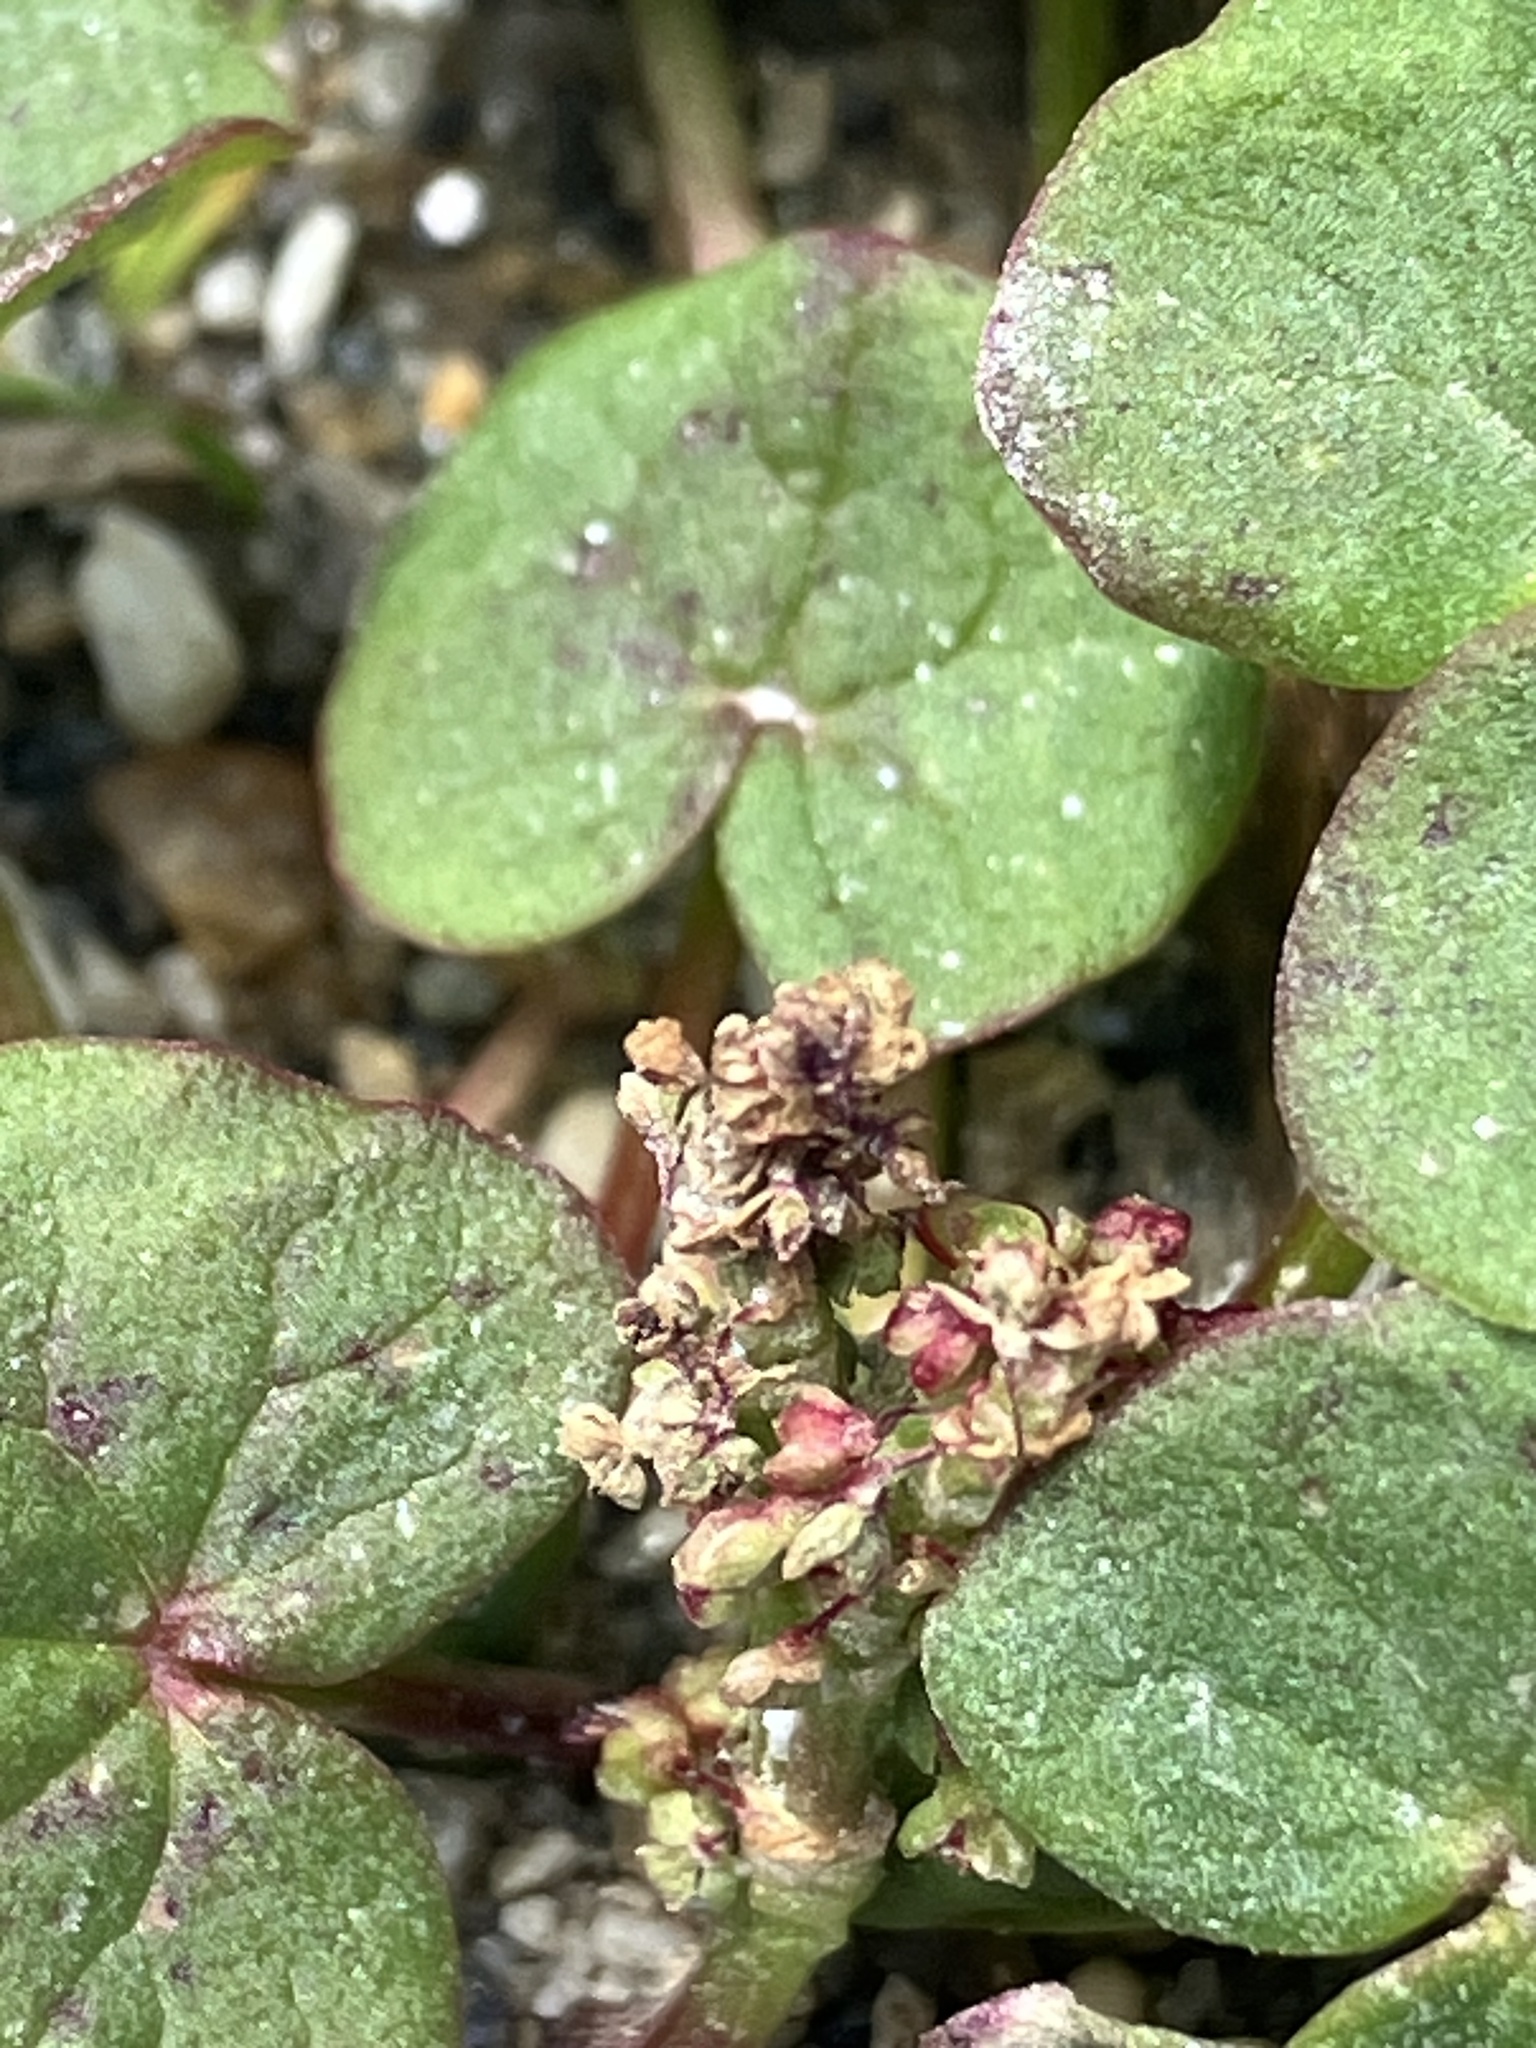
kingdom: Plantae
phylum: Tracheophyta
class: Magnoliopsida
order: Caryophyllales
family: Polygonaceae
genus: Oxyria
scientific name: Oxyria digyna
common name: Alpine mountain-sorrel
